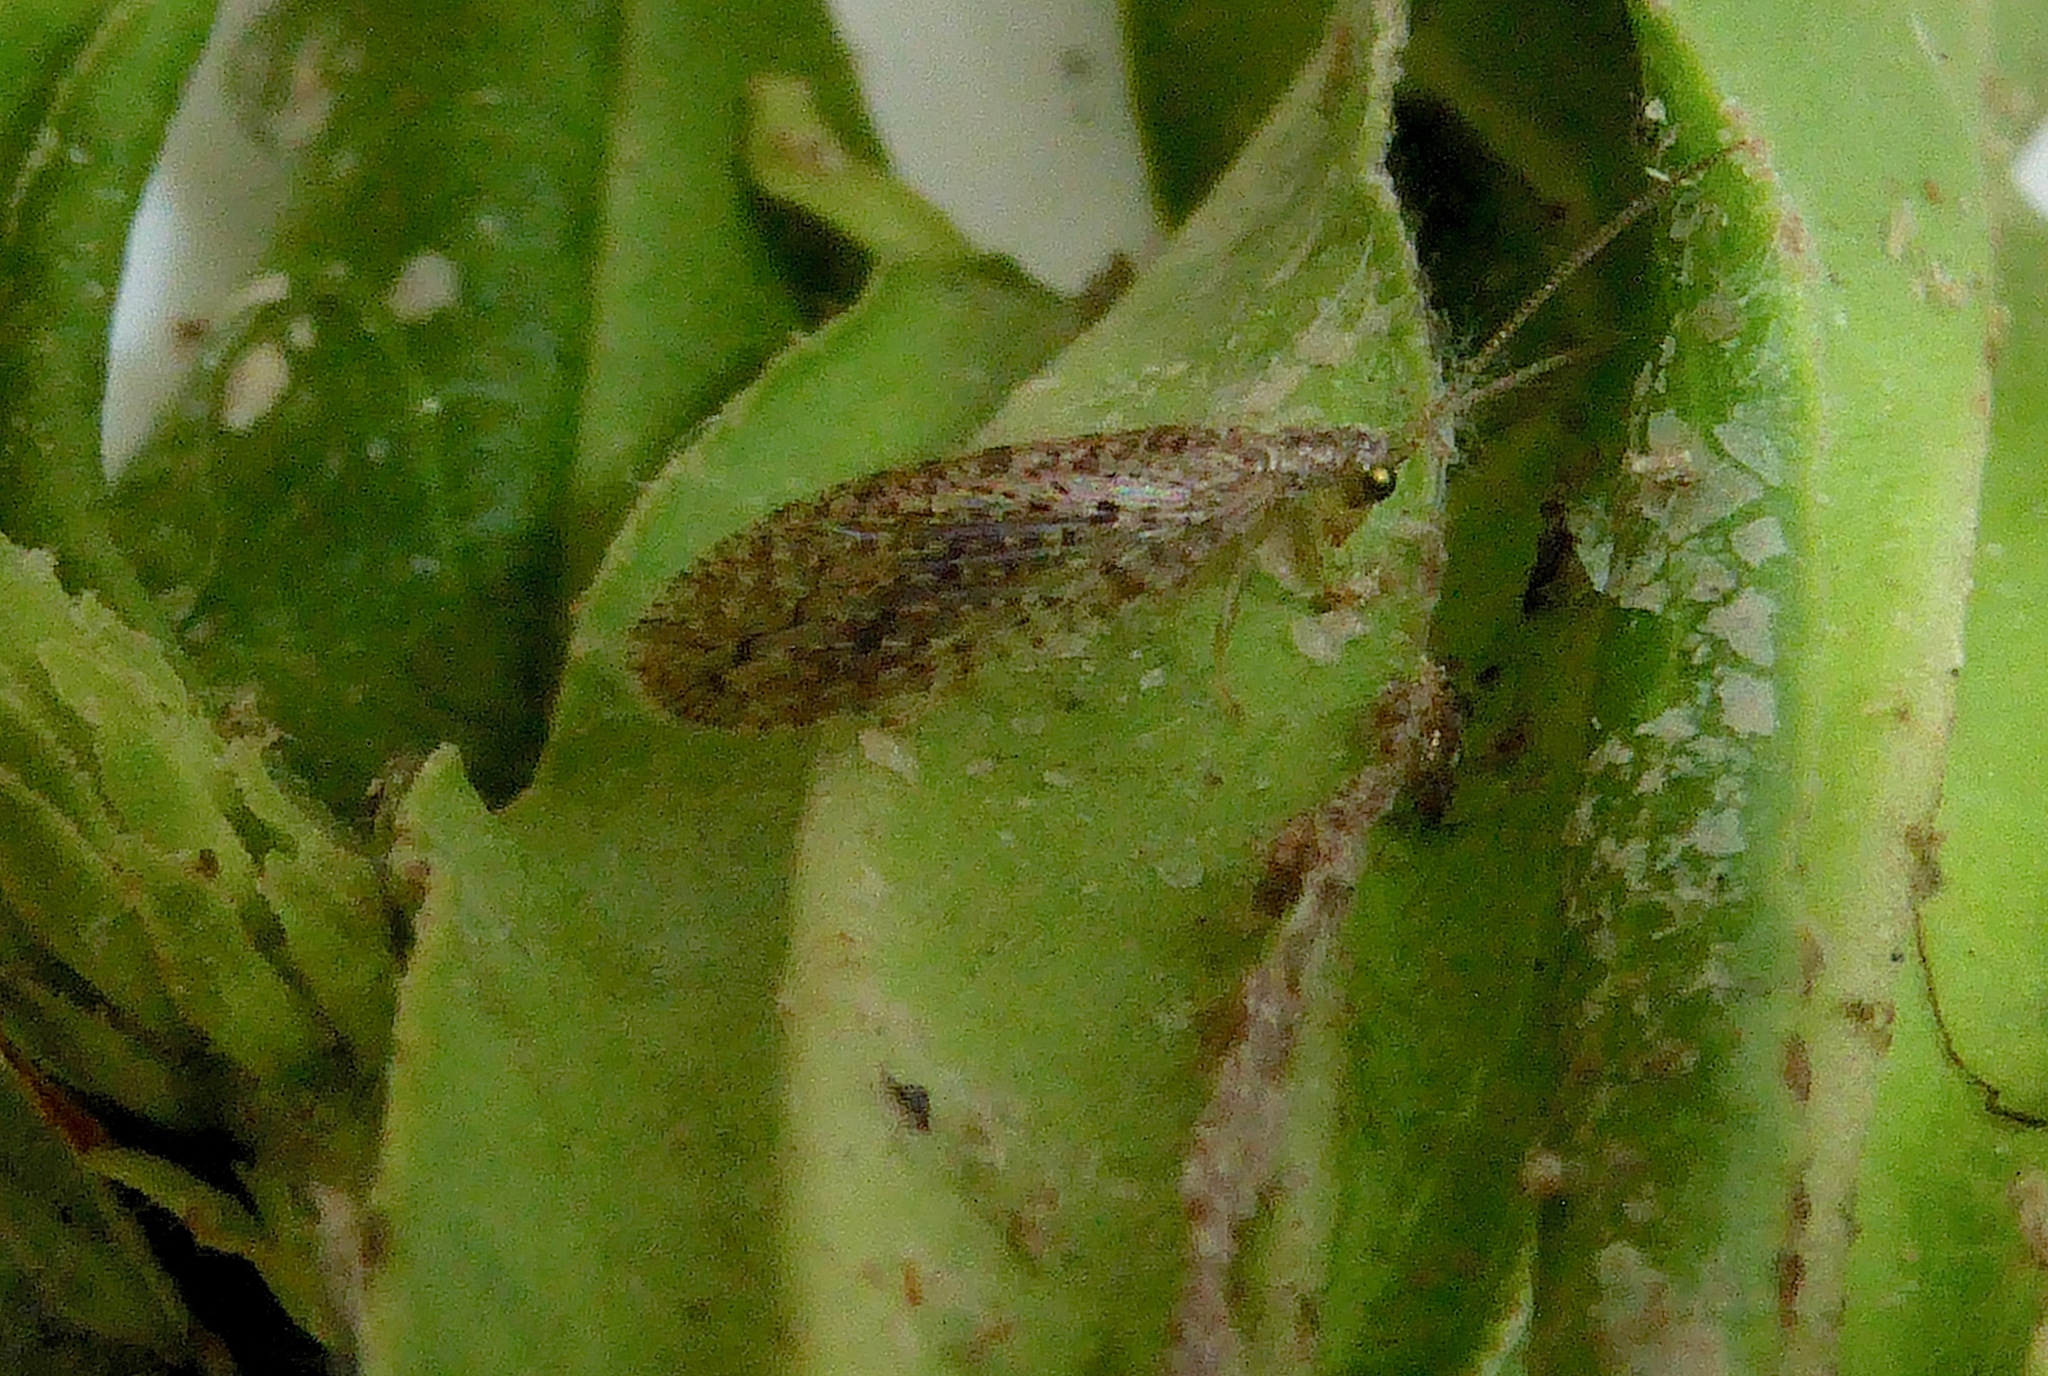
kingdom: Animalia
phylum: Arthropoda
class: Insecta
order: Neuroptera
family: Hemerobiidae
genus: Micromus
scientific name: Micromus tasmaniae
